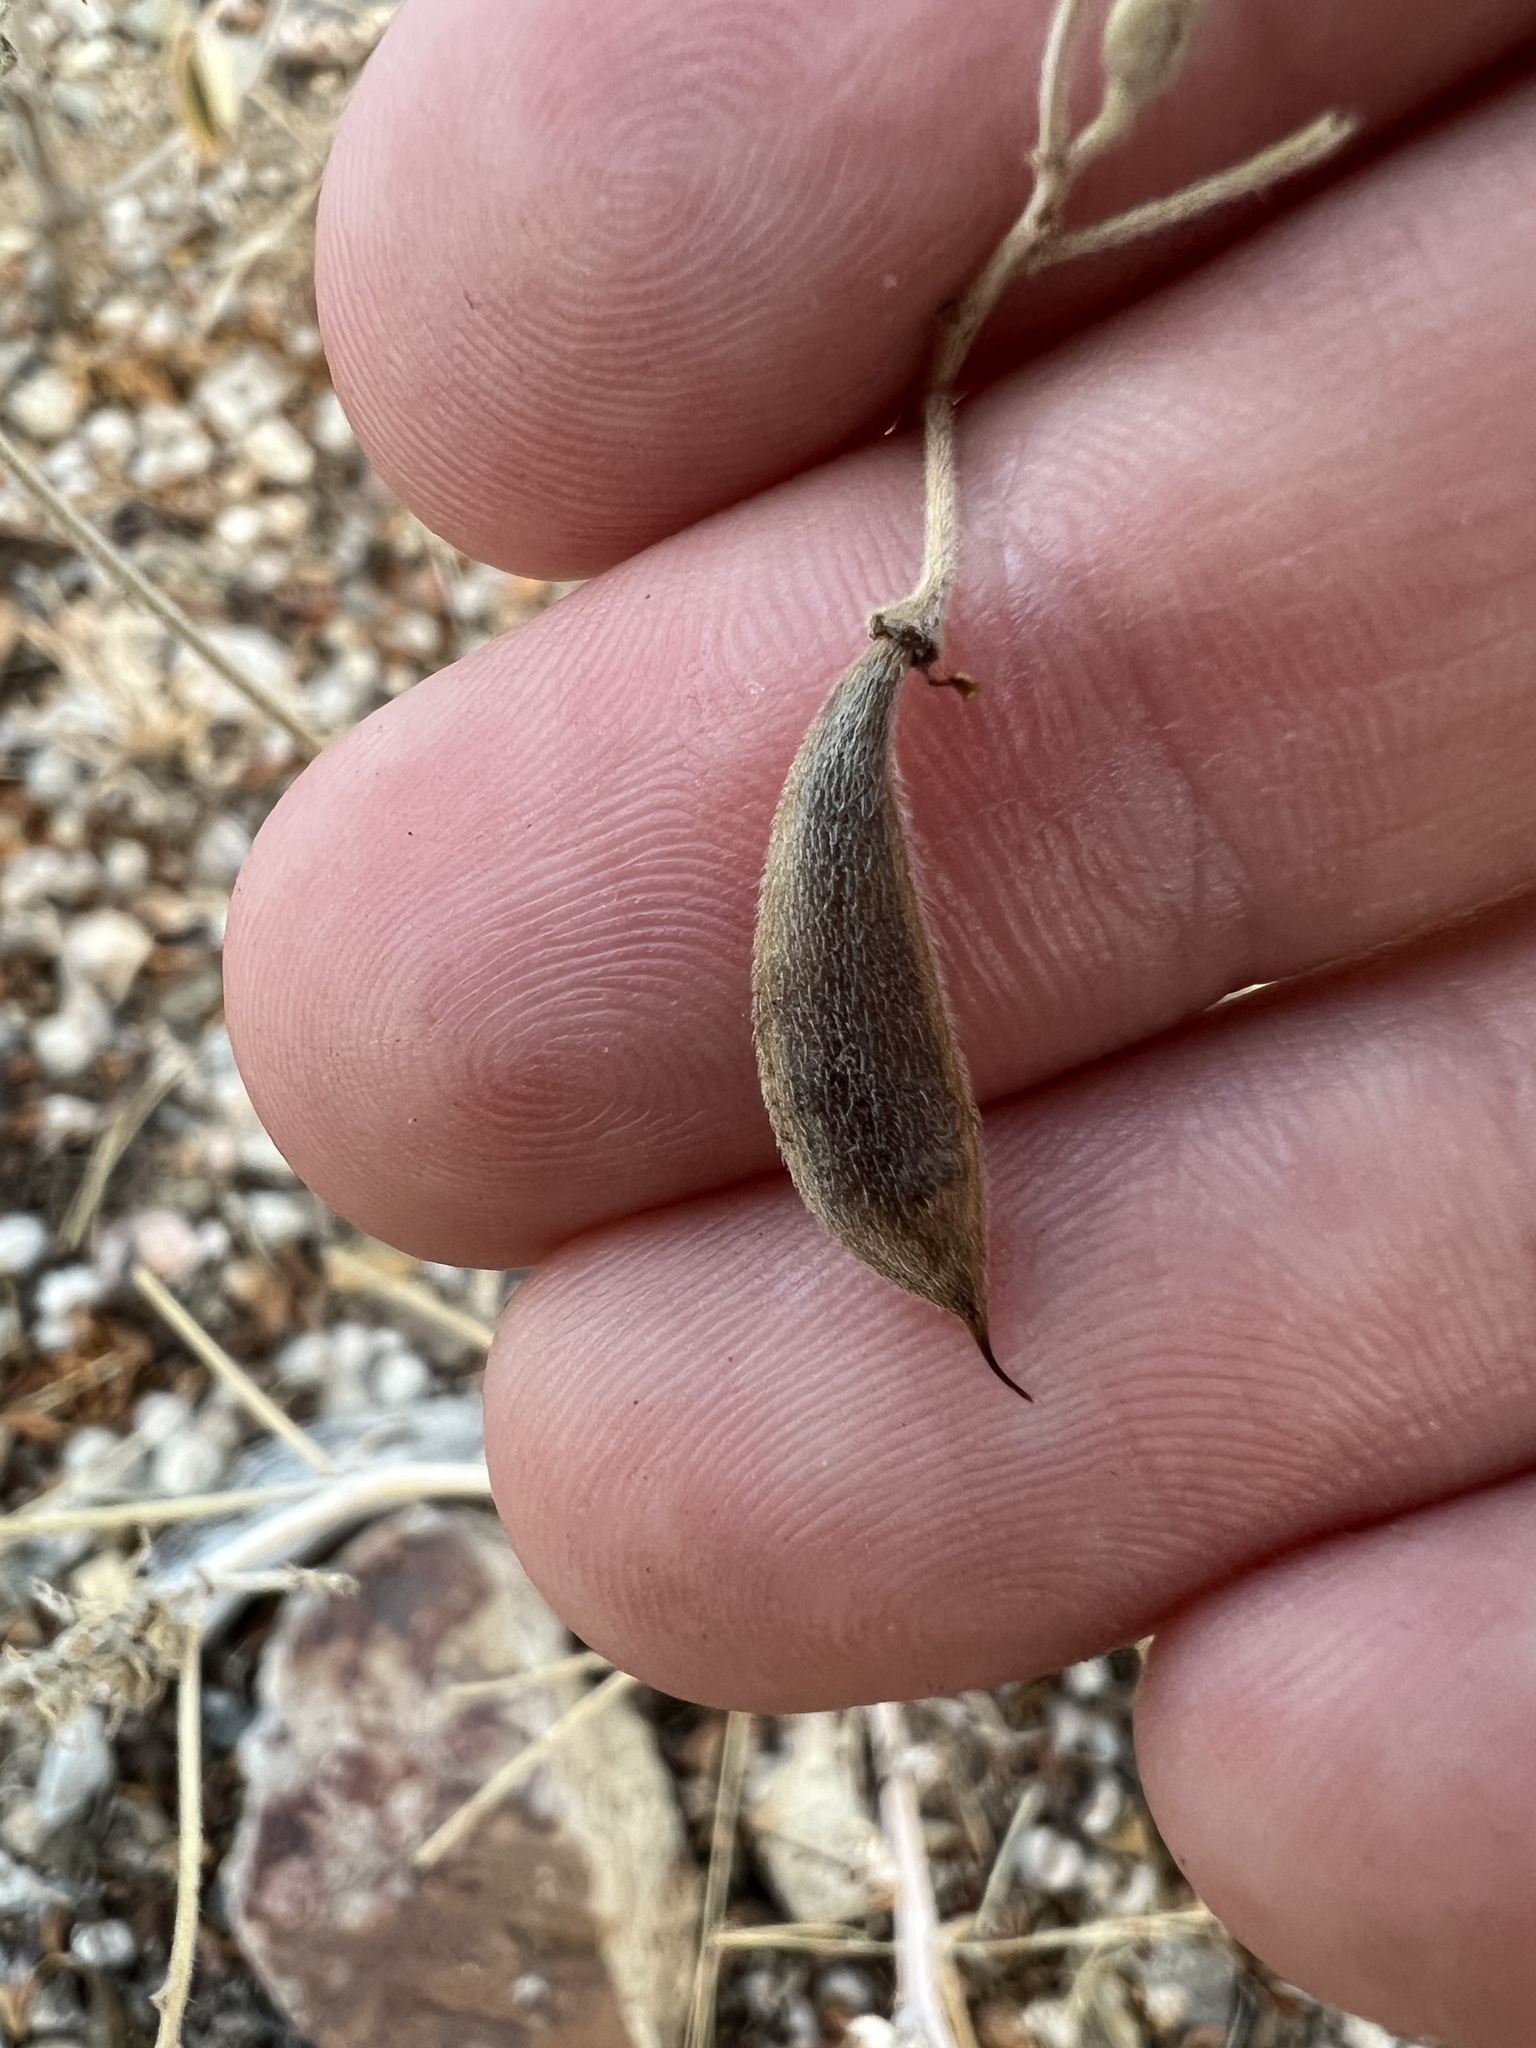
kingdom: Plantae
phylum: Tracheophyta
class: Magnoliopsida
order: Fabales
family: Fabaceae
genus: Senna
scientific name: Senna covesii
